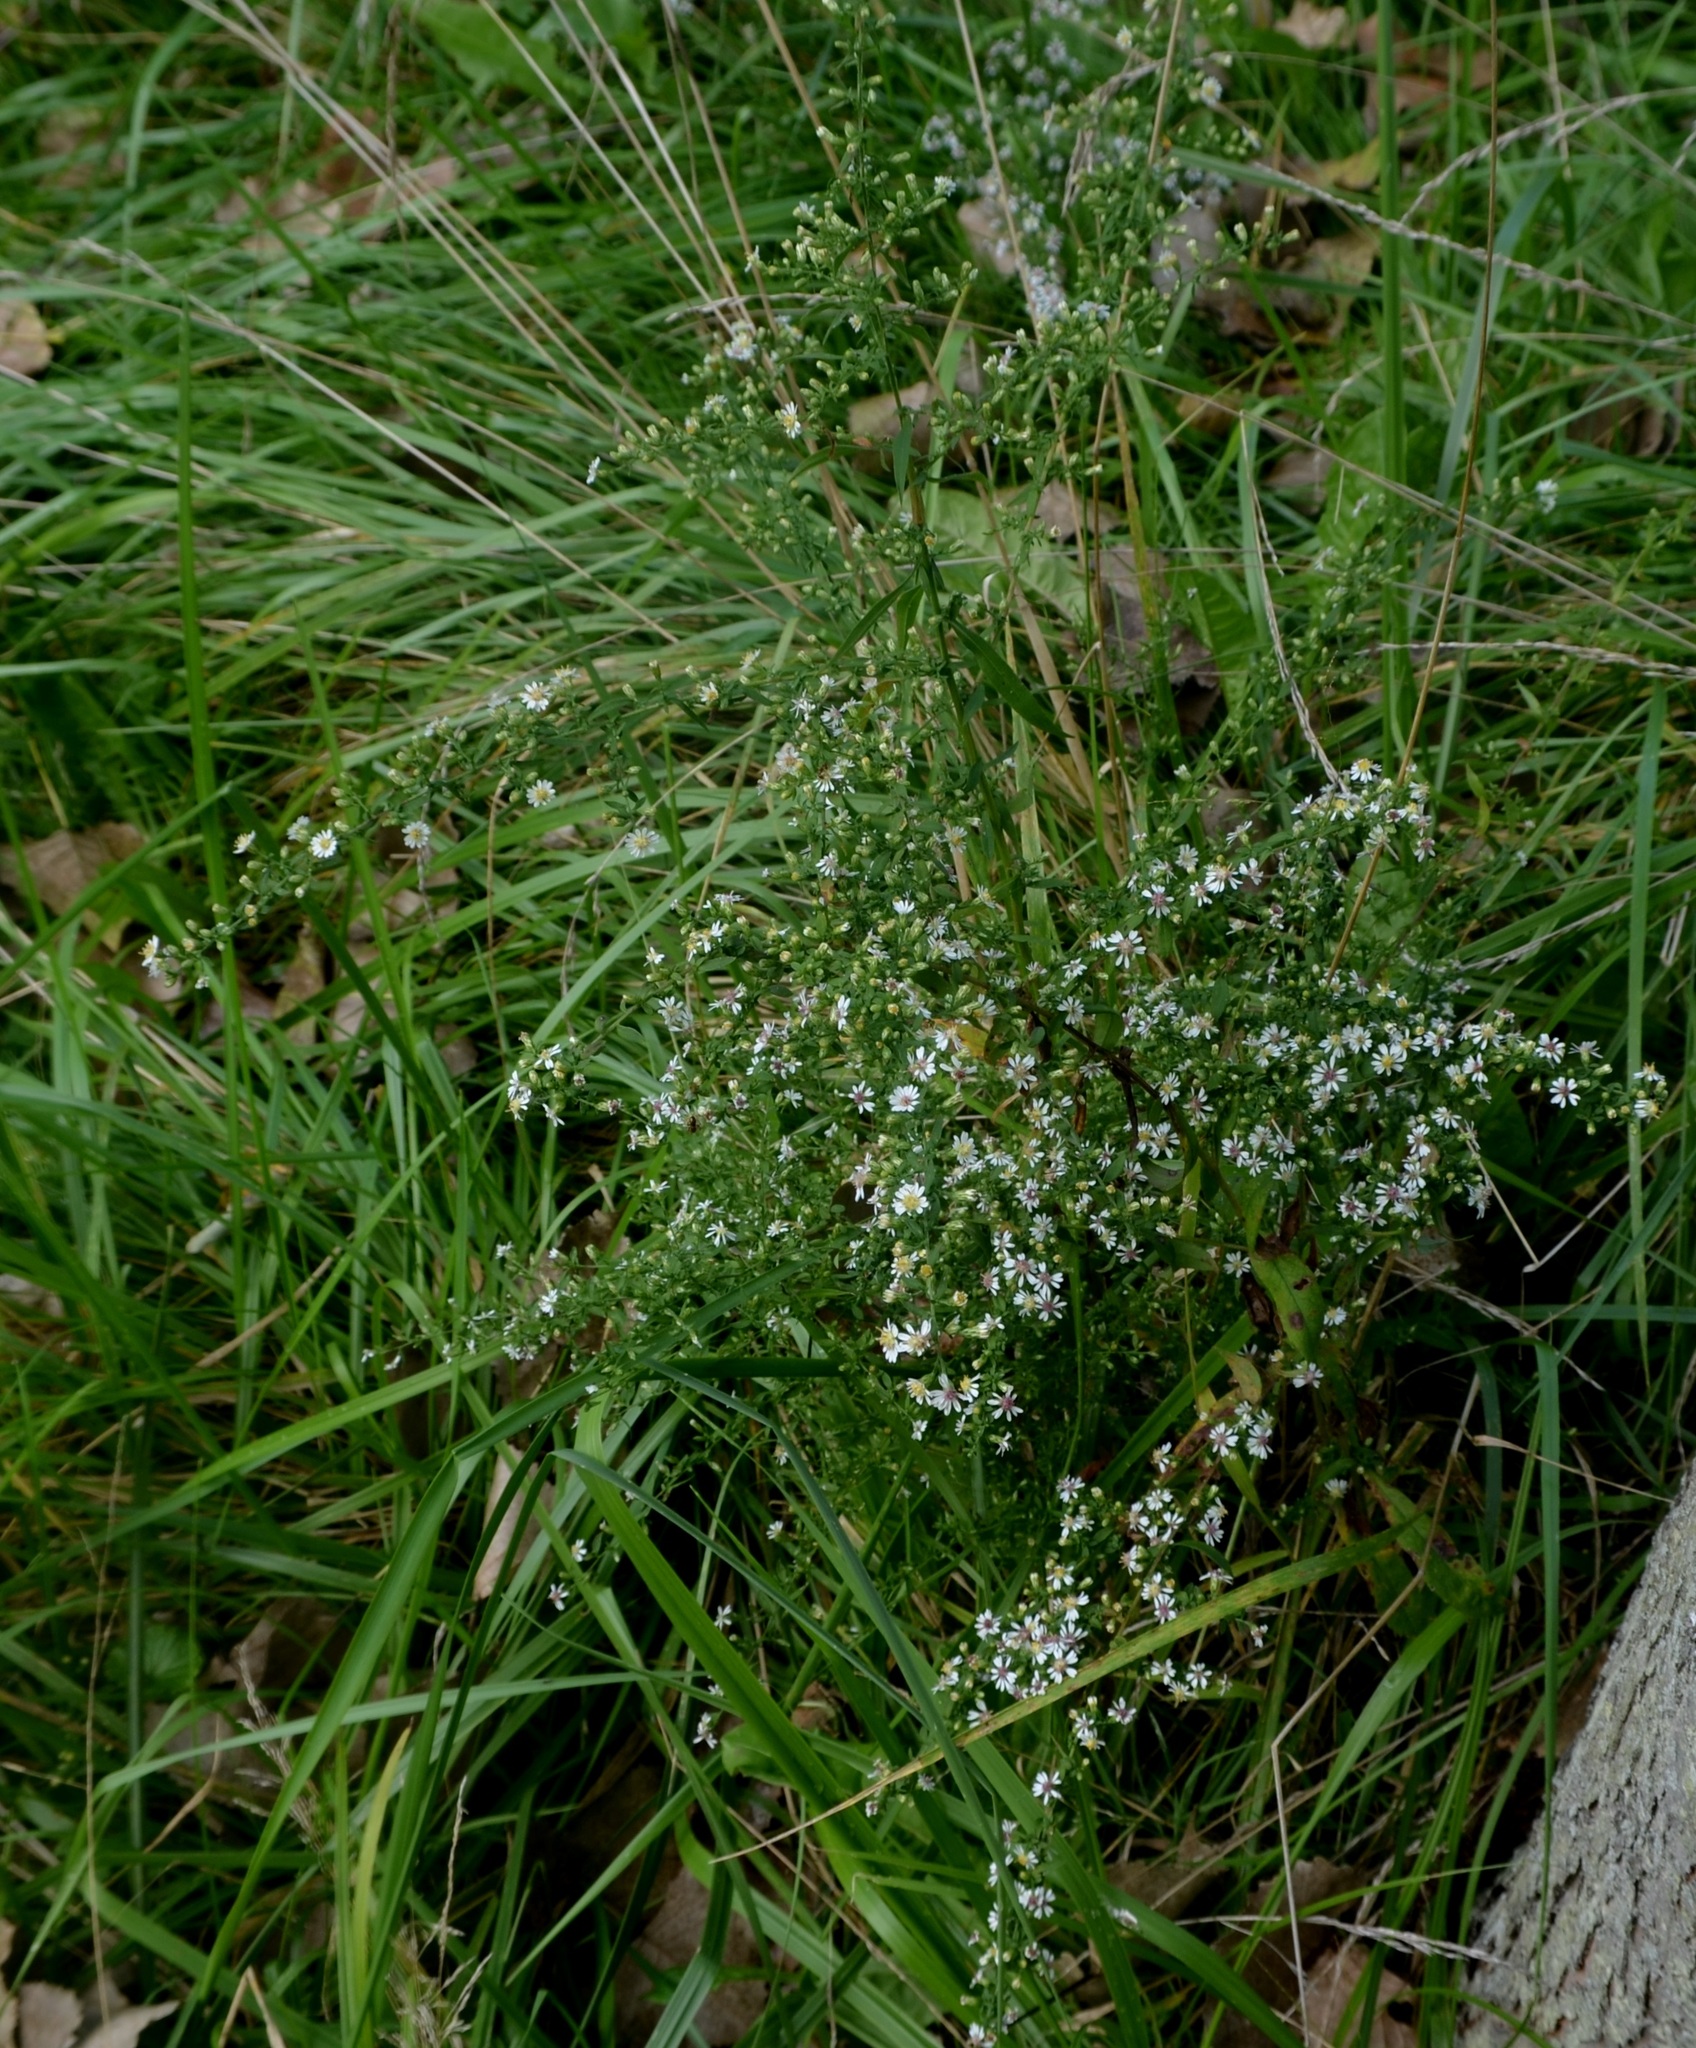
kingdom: Plantae
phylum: Tracheophyta
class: Magnoliopsida
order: Asterales
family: Asteraceae
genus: Symphyotrichum
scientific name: Symphyotrichum ericoides
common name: Heath aster
